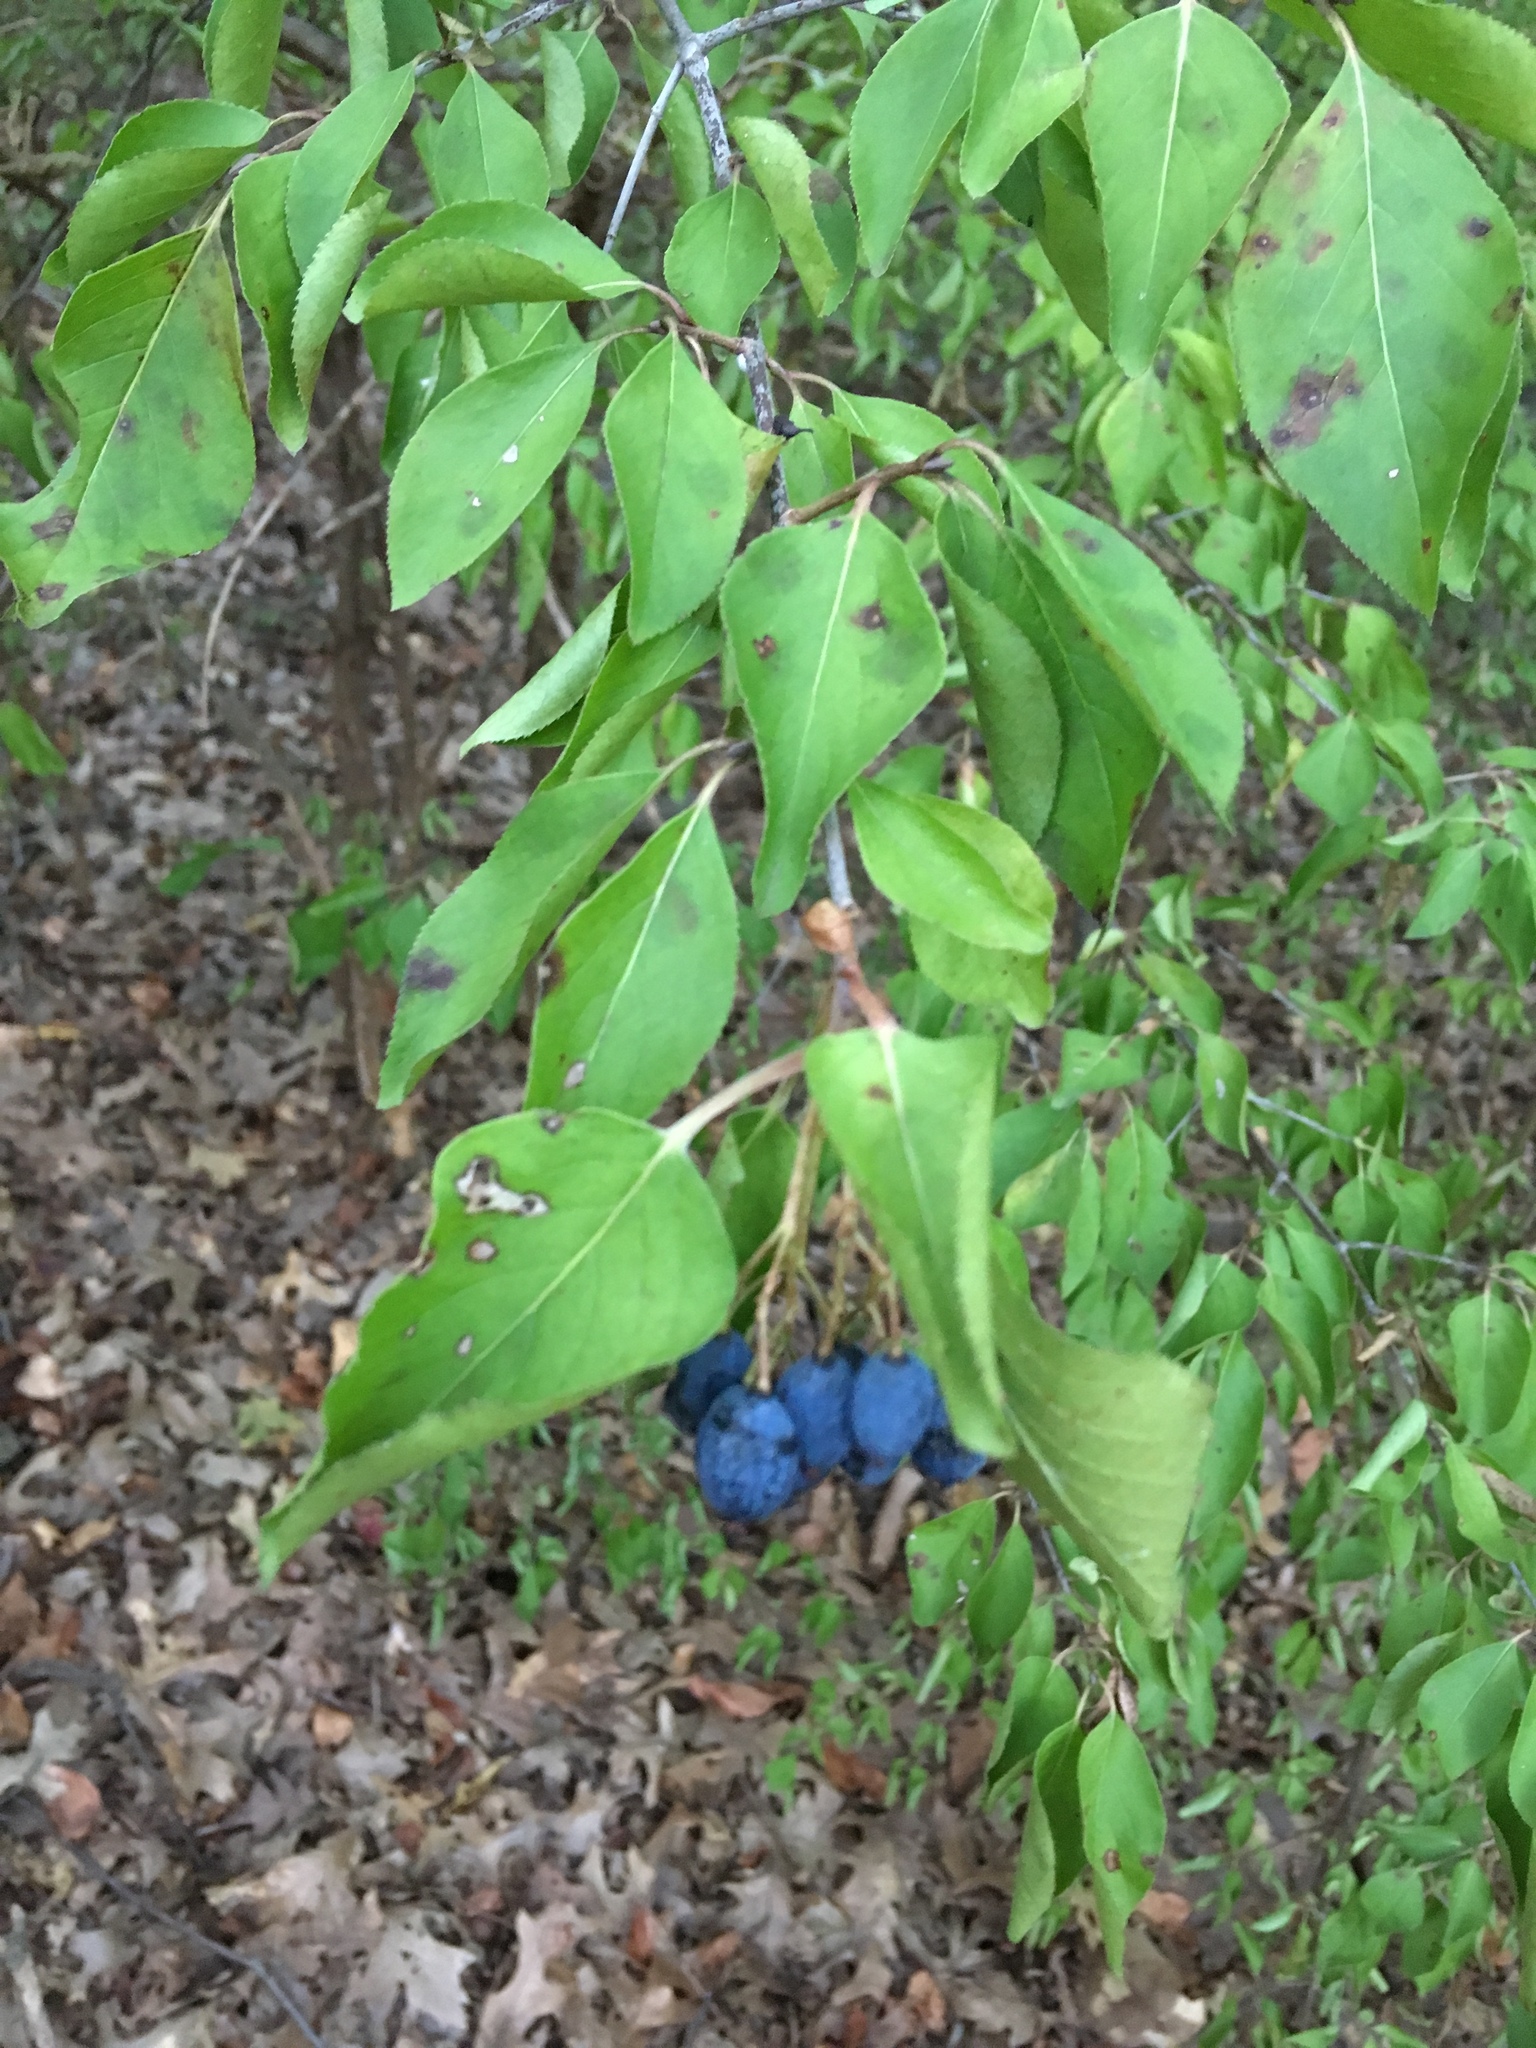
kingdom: Plantae
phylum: Tracheophyta
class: Magnoliopsida
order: Dipsacales
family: Viburnaceae
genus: Viburnum
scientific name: Viburnum prunifolium
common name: Black haw
